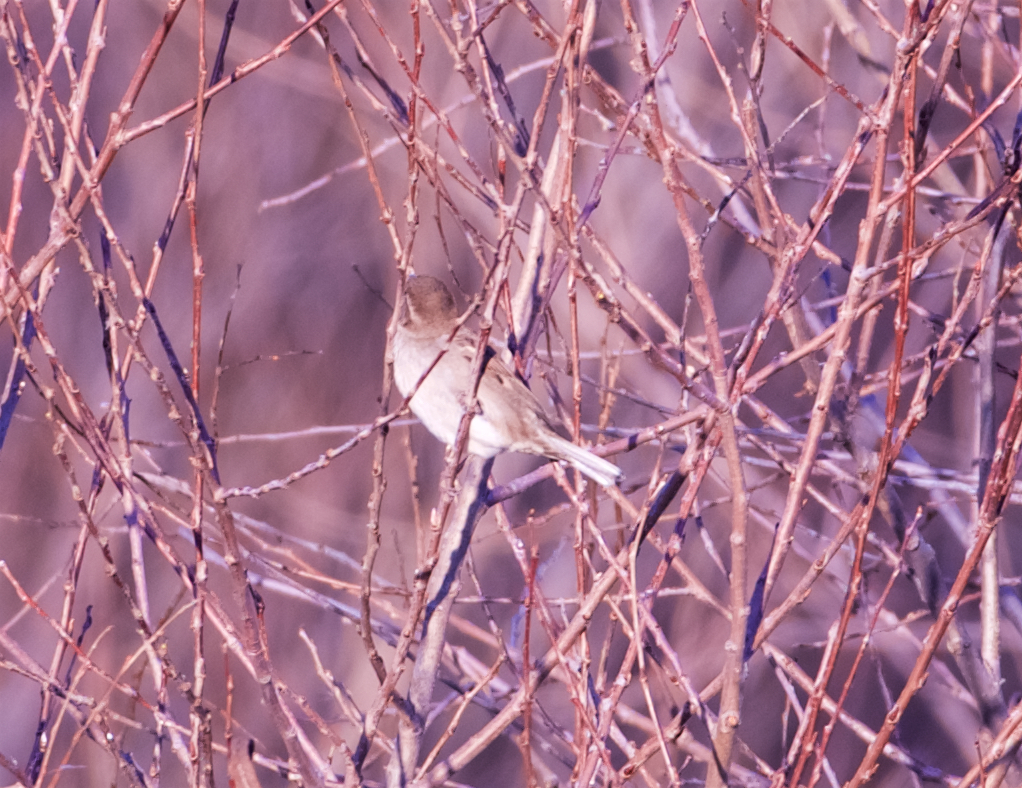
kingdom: Animalia
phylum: Chordata
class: Aves
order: Passeriformes
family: Passeridae
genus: Passer
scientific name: Passer domesticus
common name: House sparrow
